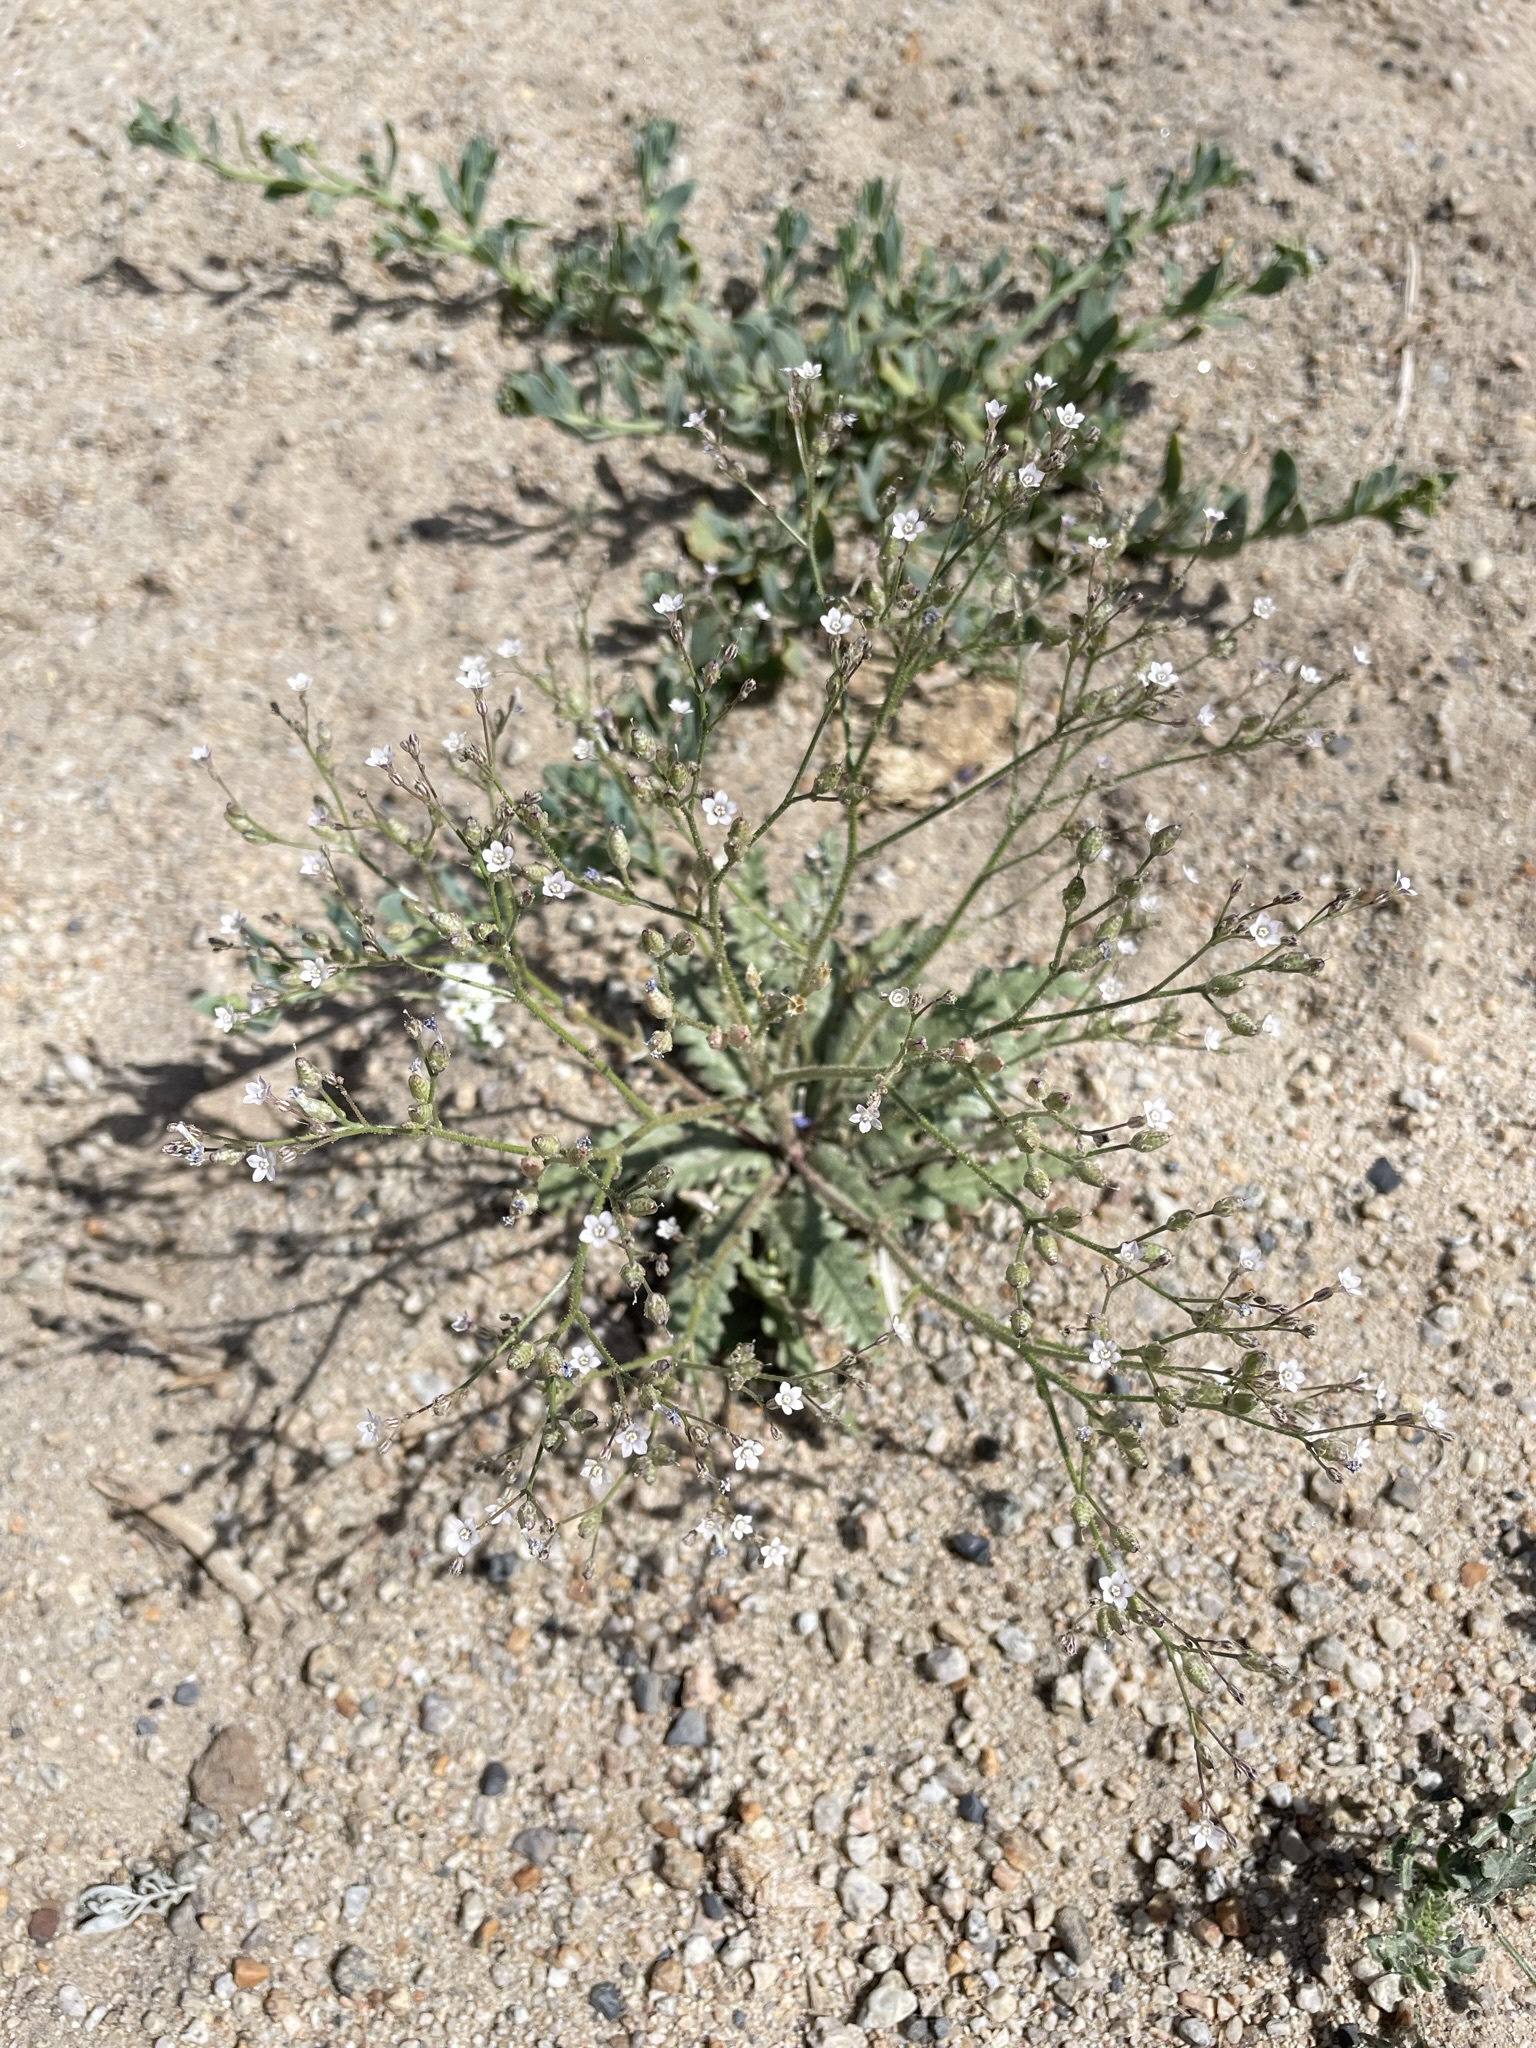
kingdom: Plantae
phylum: Tracheophyta
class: Magnoliopsida
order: Ericales
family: Polemoniaceae
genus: Aliciella
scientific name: Aliciella lottiae
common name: Lott's gilia
